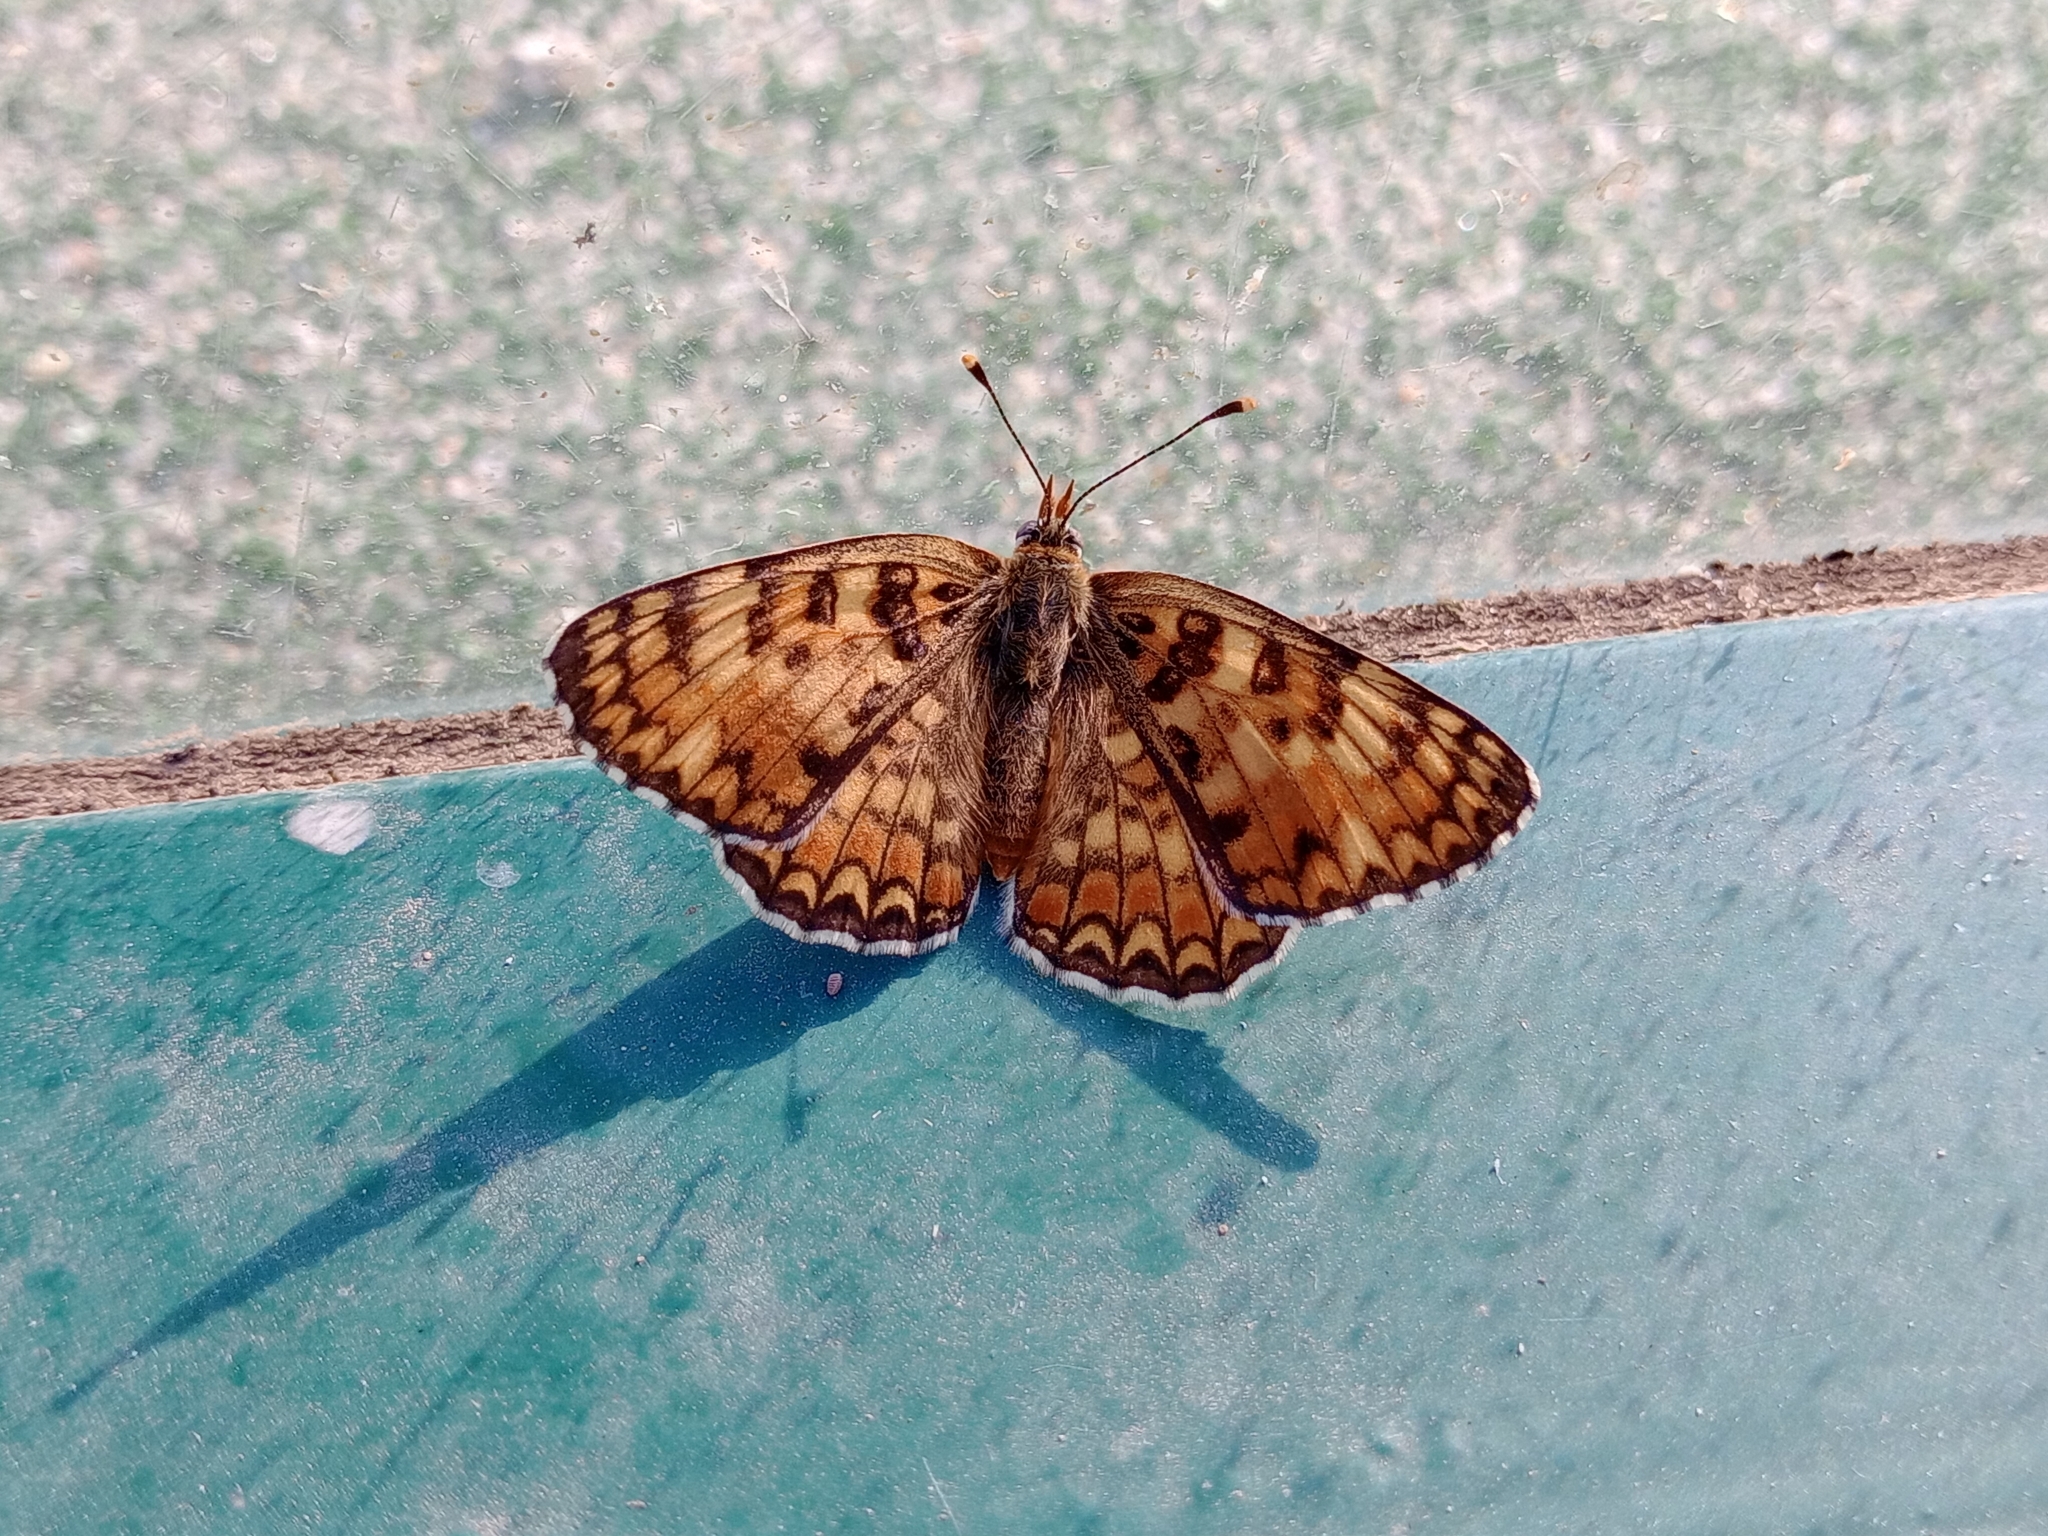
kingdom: Animalia
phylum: Arthropoda
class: Insecta
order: Lepidoptera
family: Nymphalidae
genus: Melitaea
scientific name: Melitaea phoebe
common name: Knapweed fritillary
